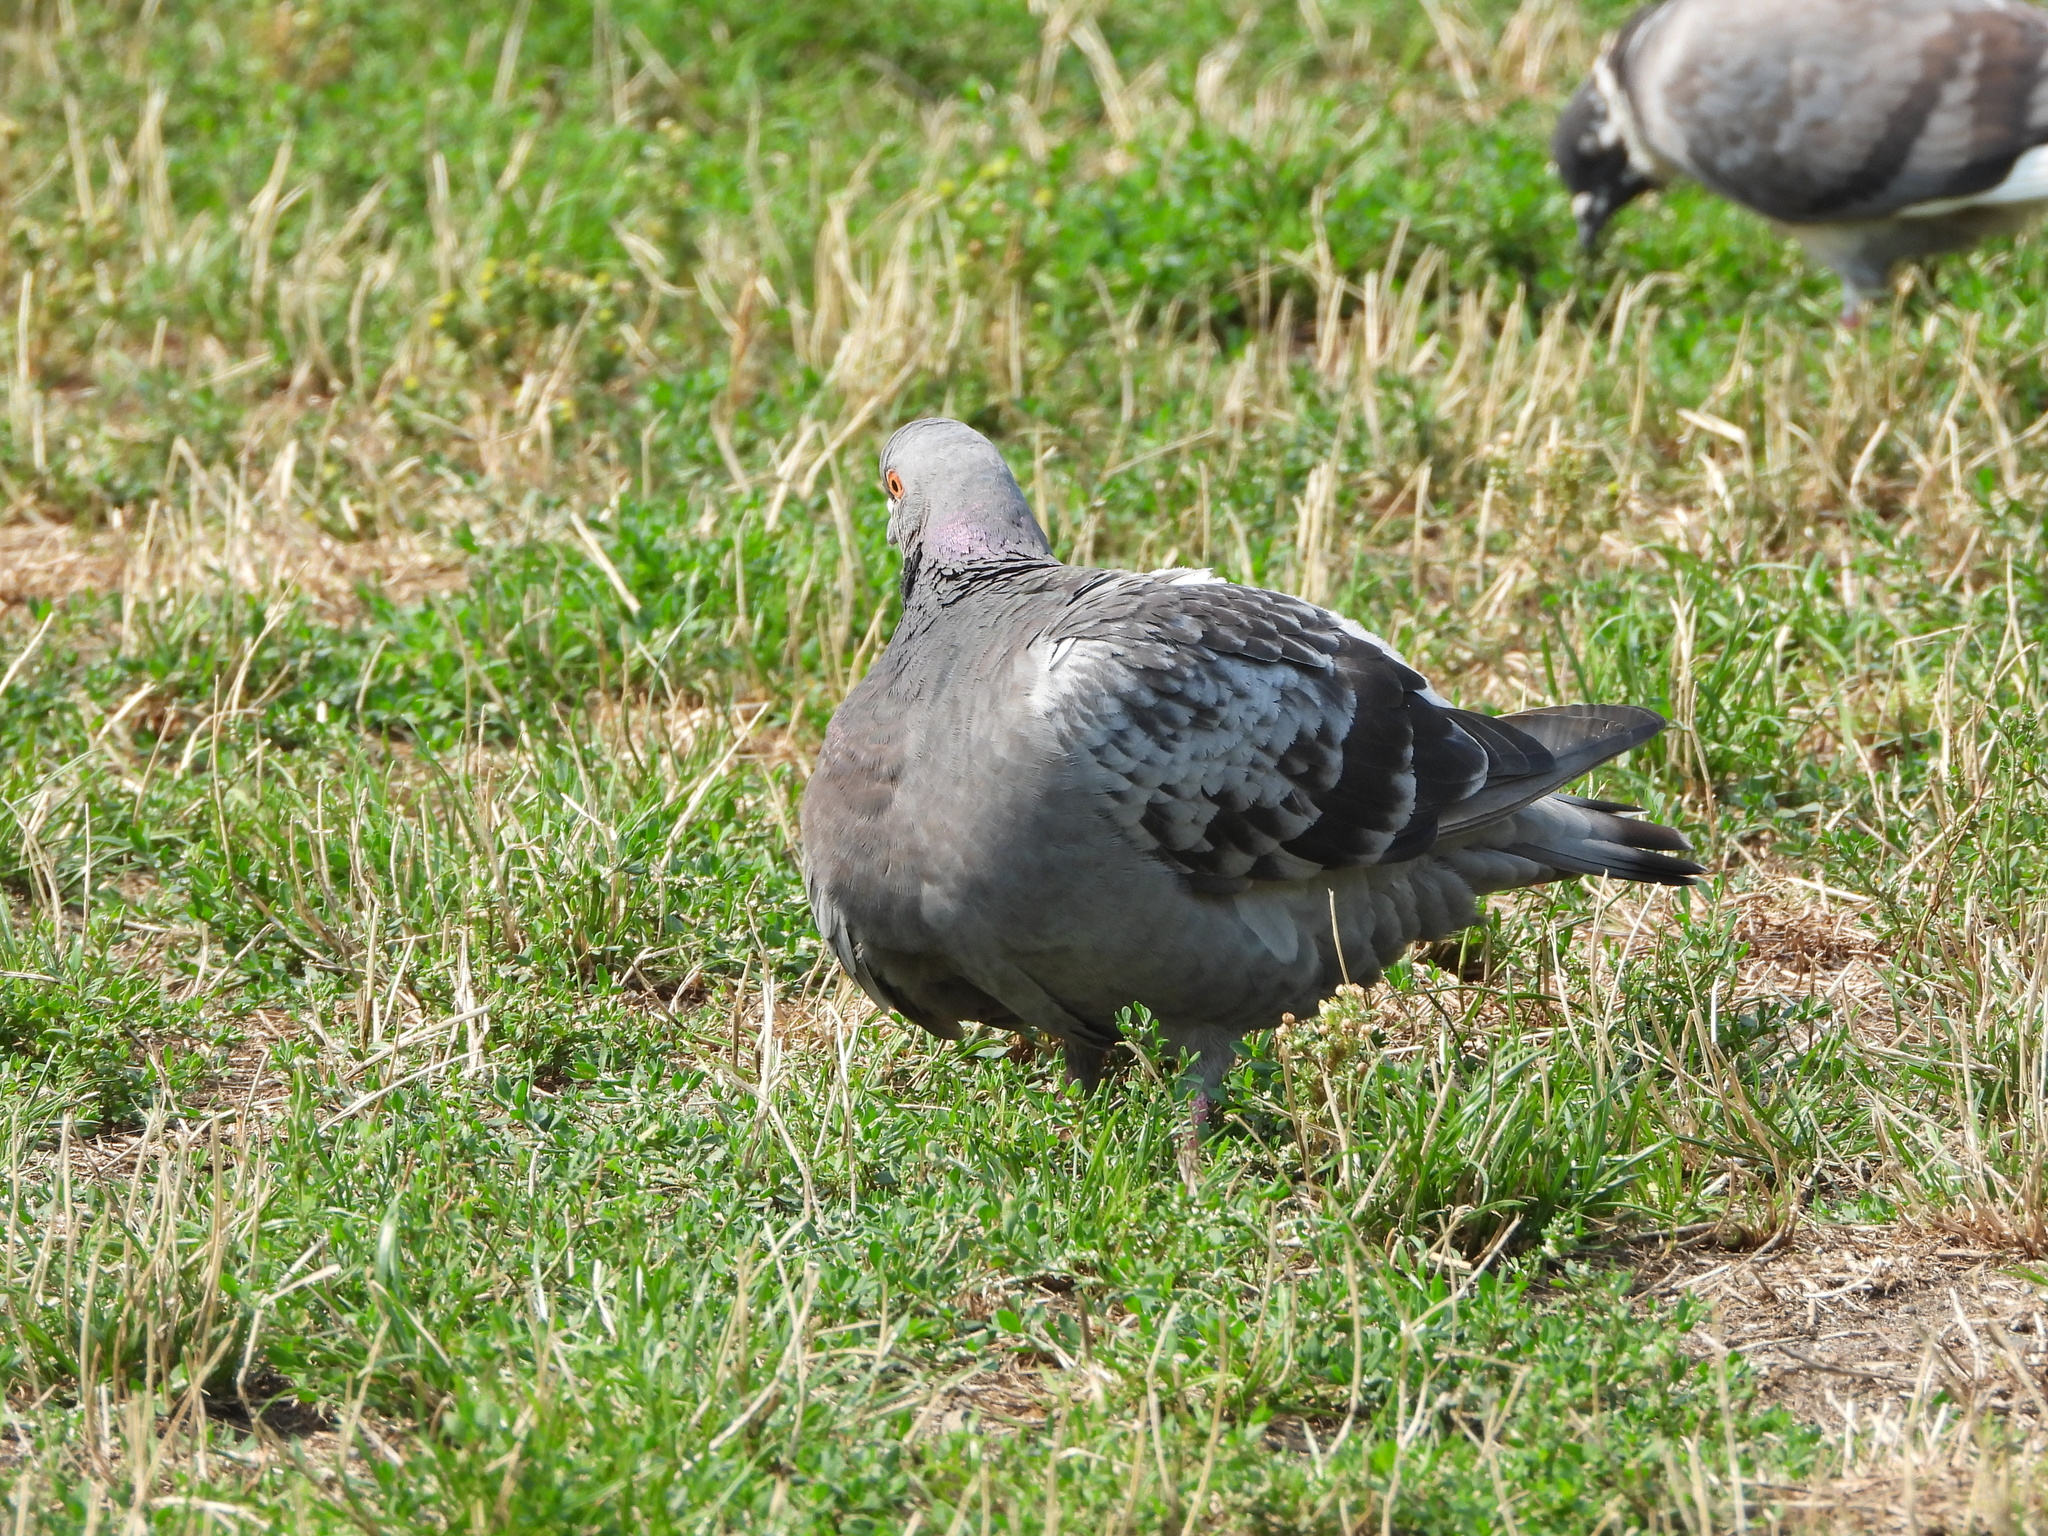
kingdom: Animalia
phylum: Chordata
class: Aves
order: Columbiformes
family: Columbidae
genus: Columba
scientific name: Columba livia
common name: Rock pigeon
